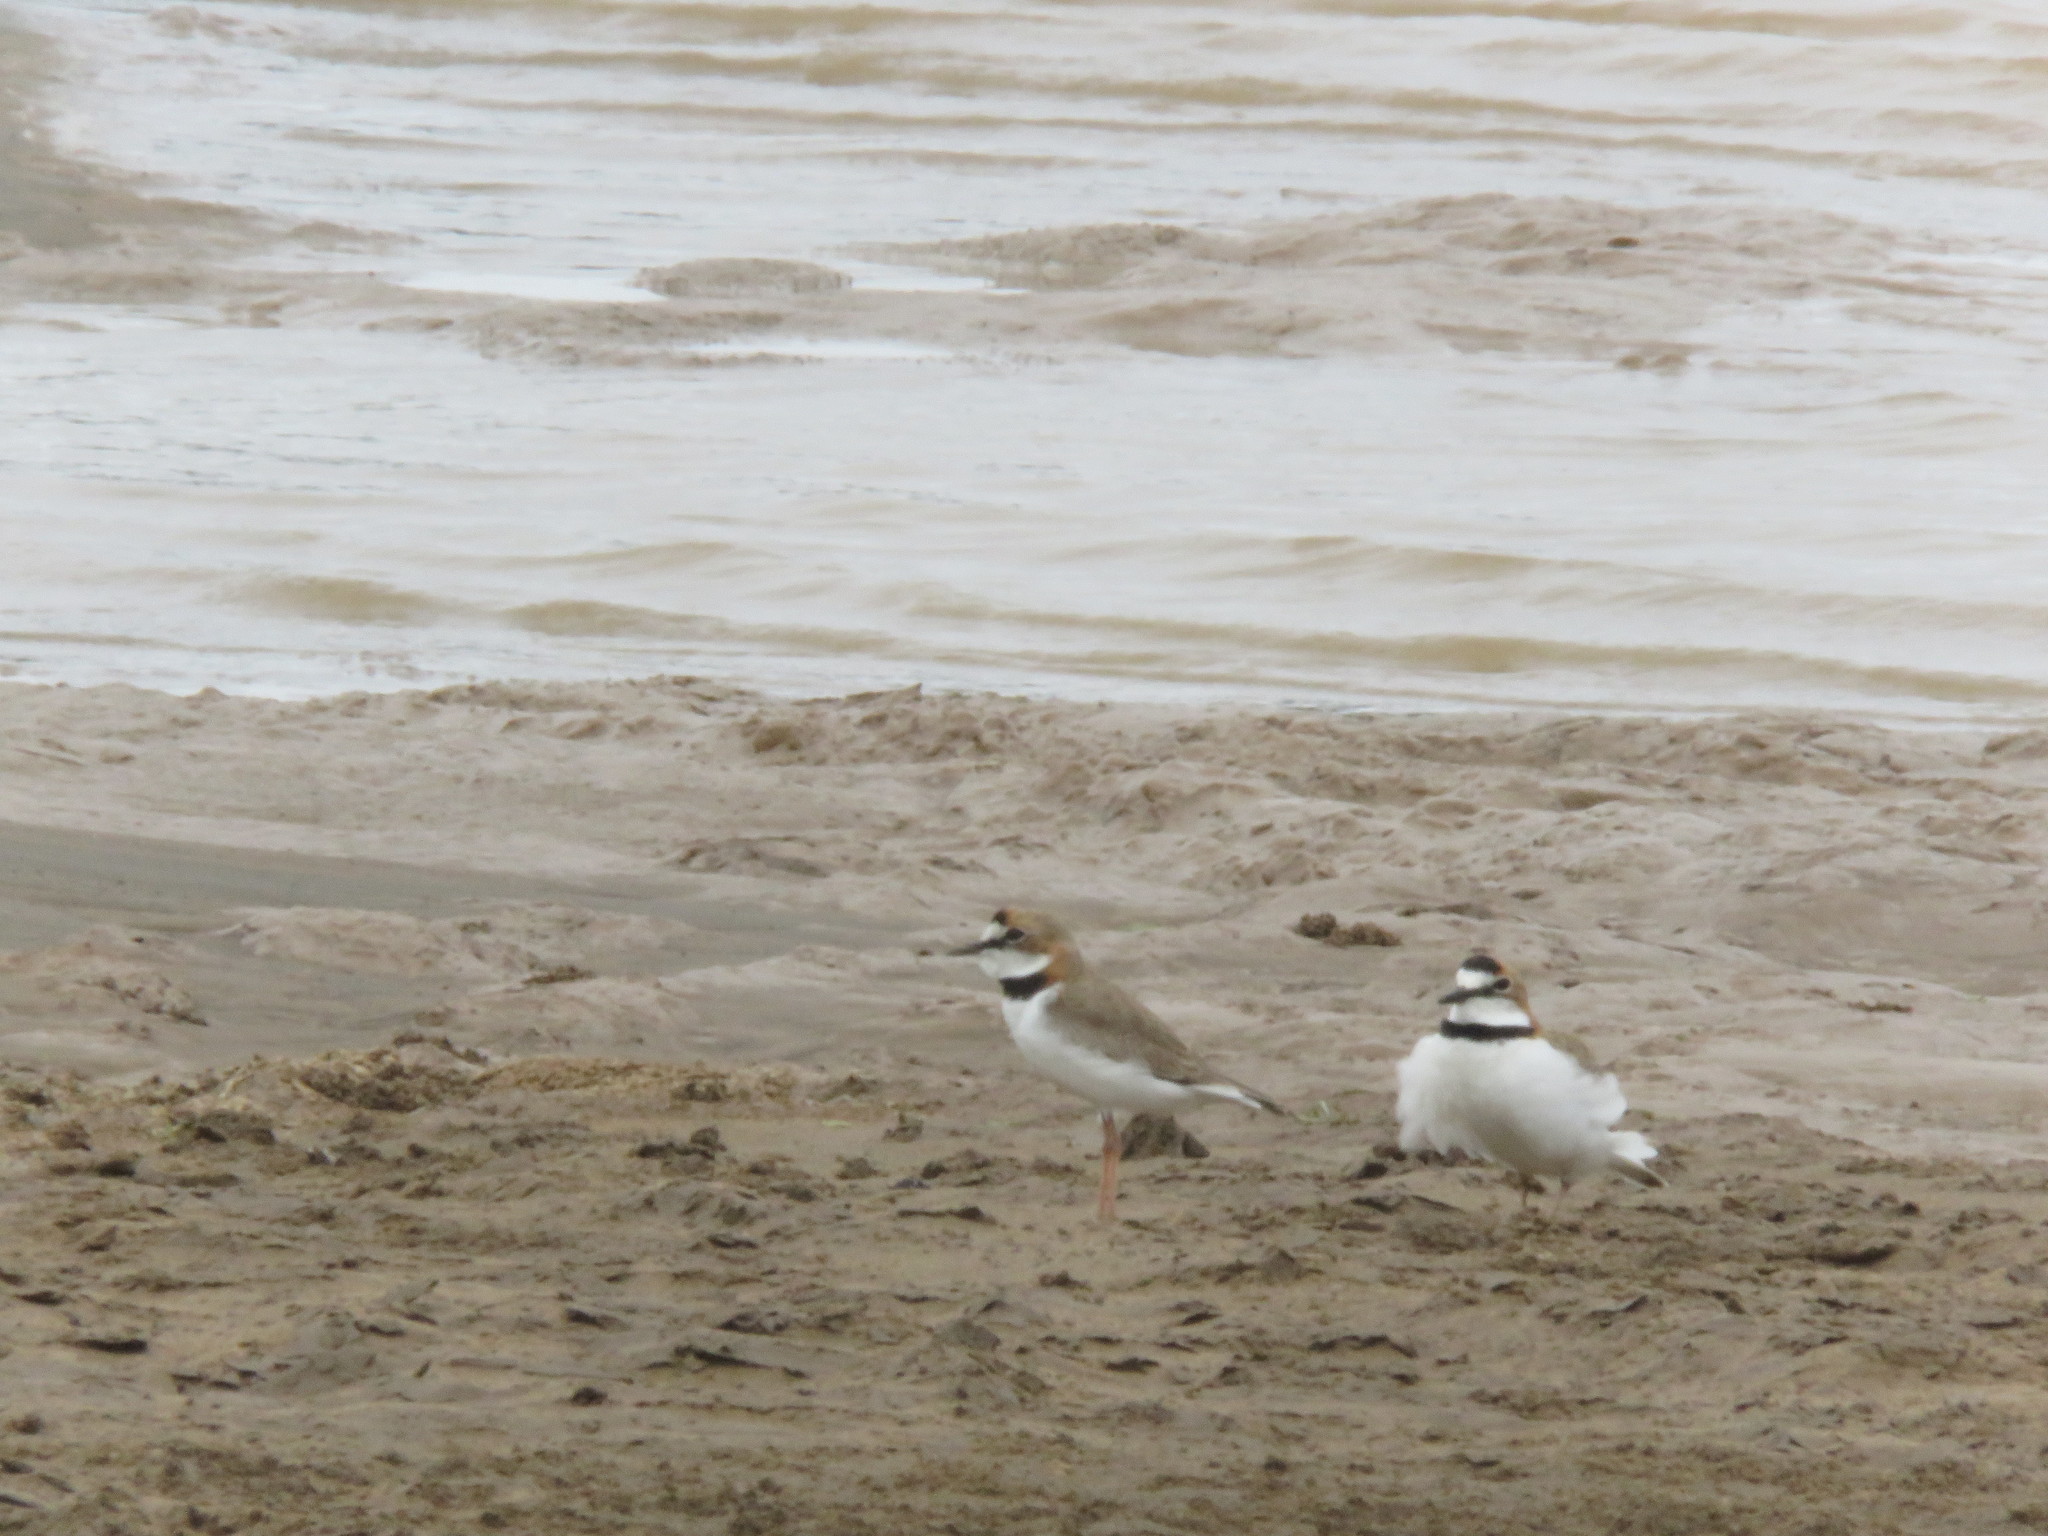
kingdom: Animalia
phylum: Chordata
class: Aves
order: Charadriiformes
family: Charadriidae
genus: Anarhynchus
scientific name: Anarhynchus
